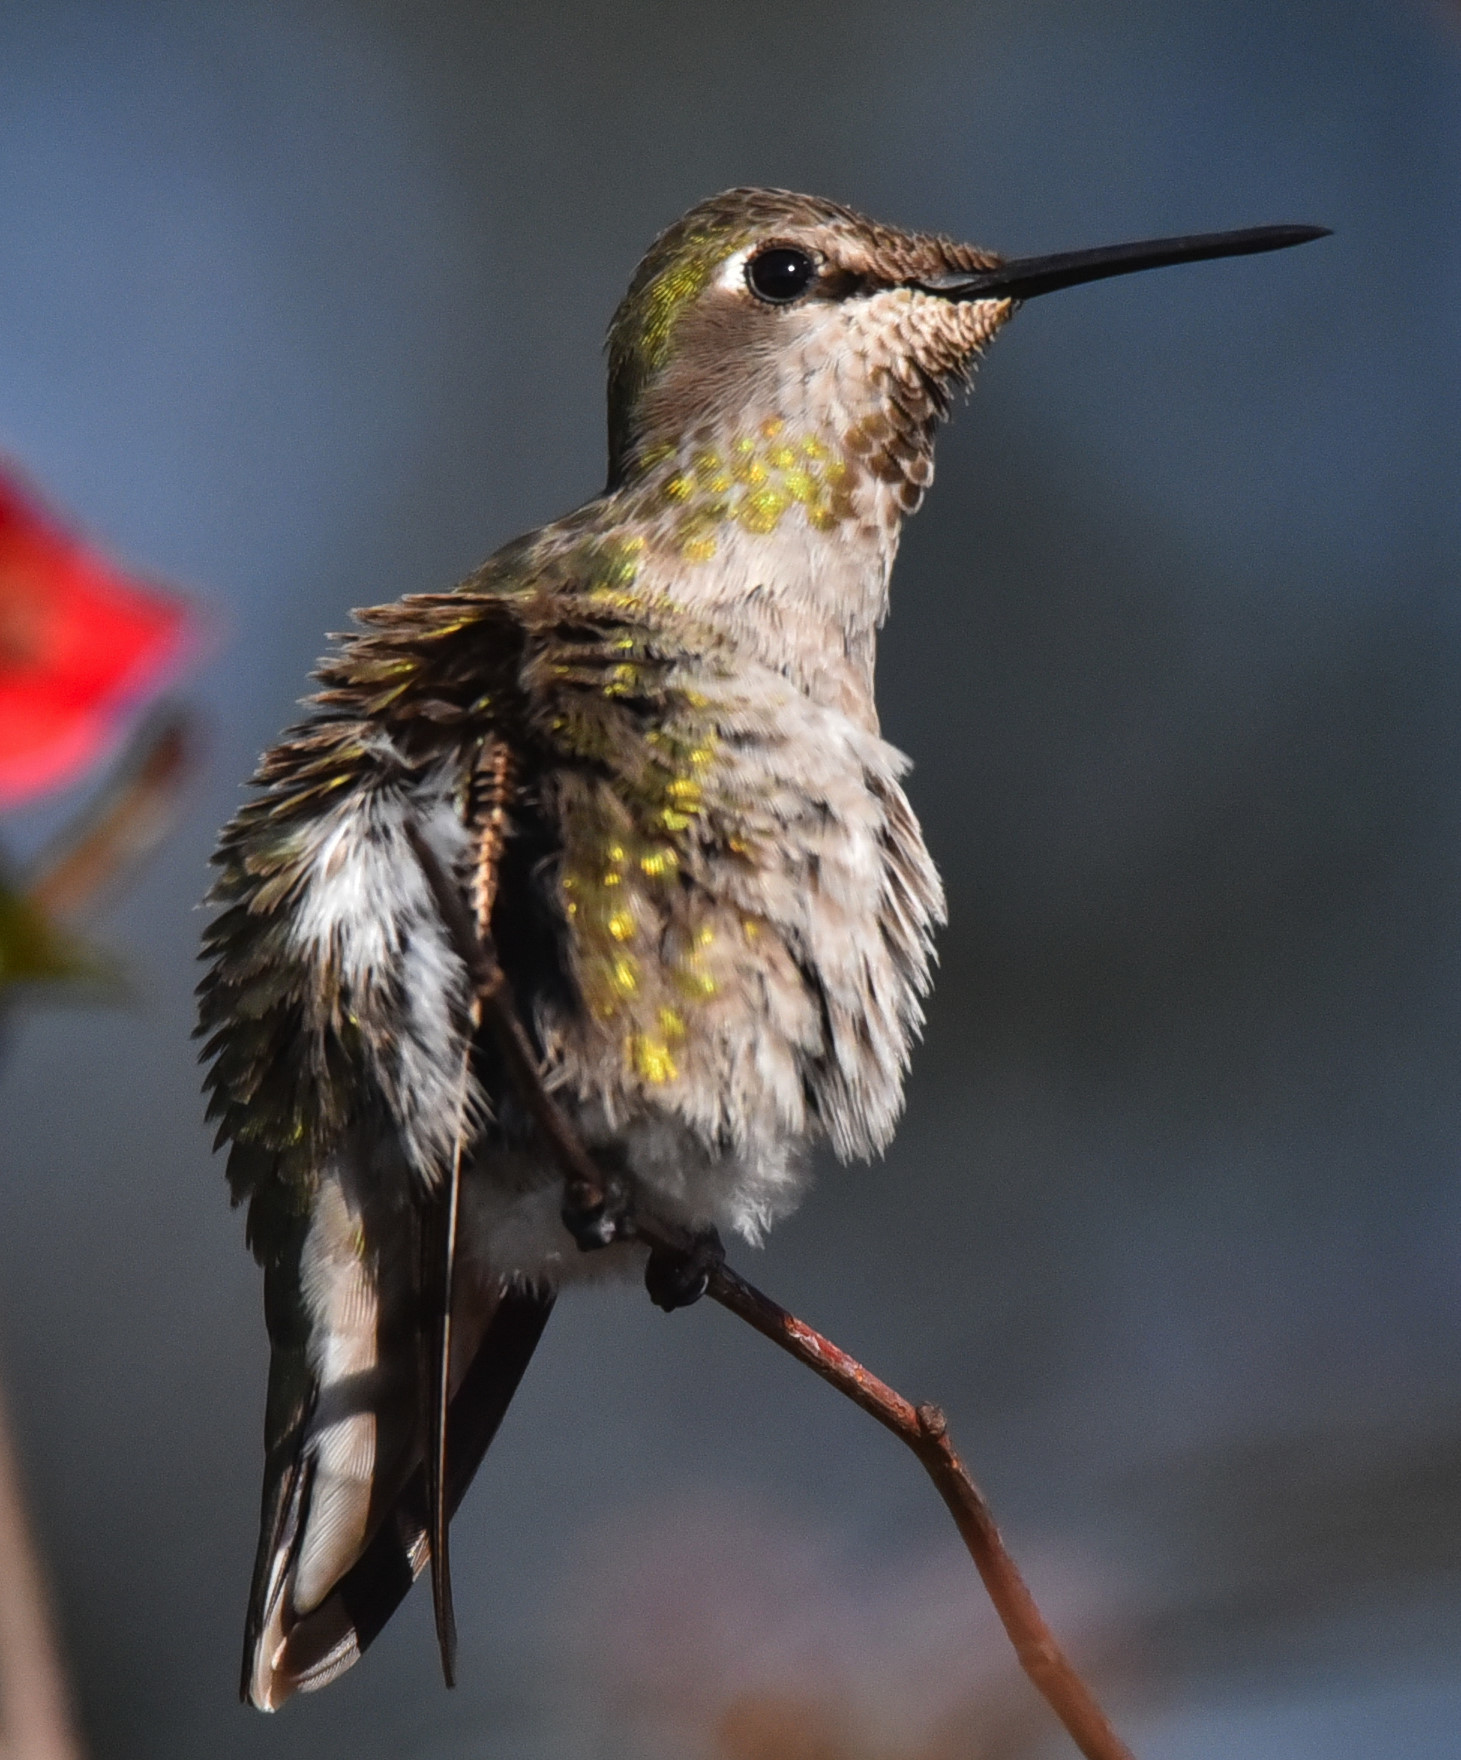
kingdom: Animalia
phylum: Chordata
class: Aves
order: Apodiformes
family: Trochilidae
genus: Calypte
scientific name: Calypte anna
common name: Anna's hummingbird
